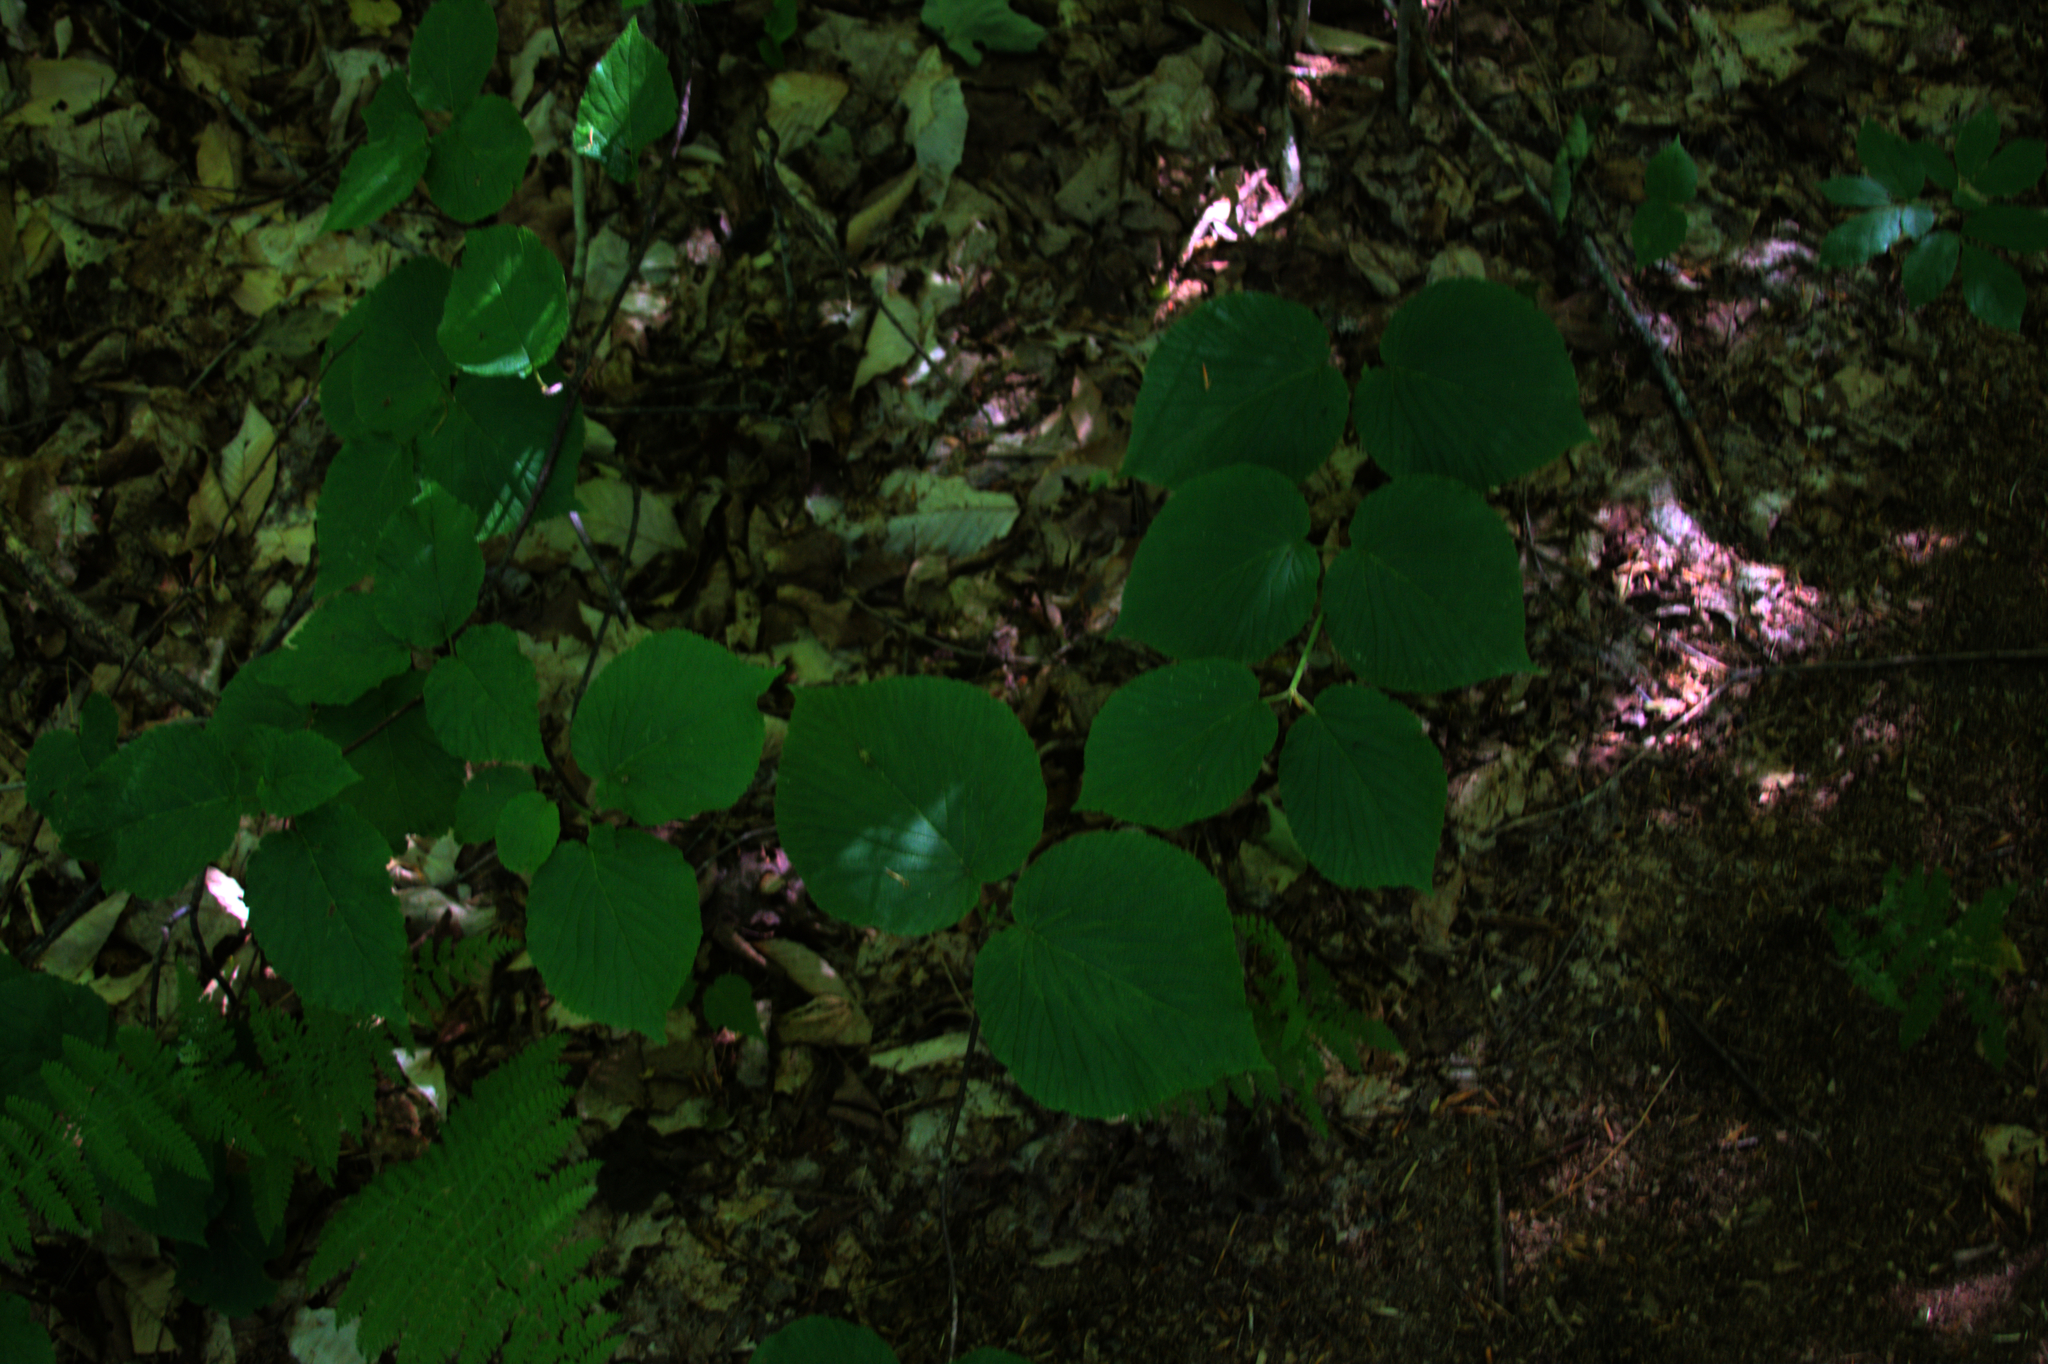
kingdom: Plantae
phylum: Tracheophyta
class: Magnoliopsida
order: Dipsacales
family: Viburnaceae
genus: Viburnum
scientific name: Viburnum lantanoides
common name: Hobblebush
